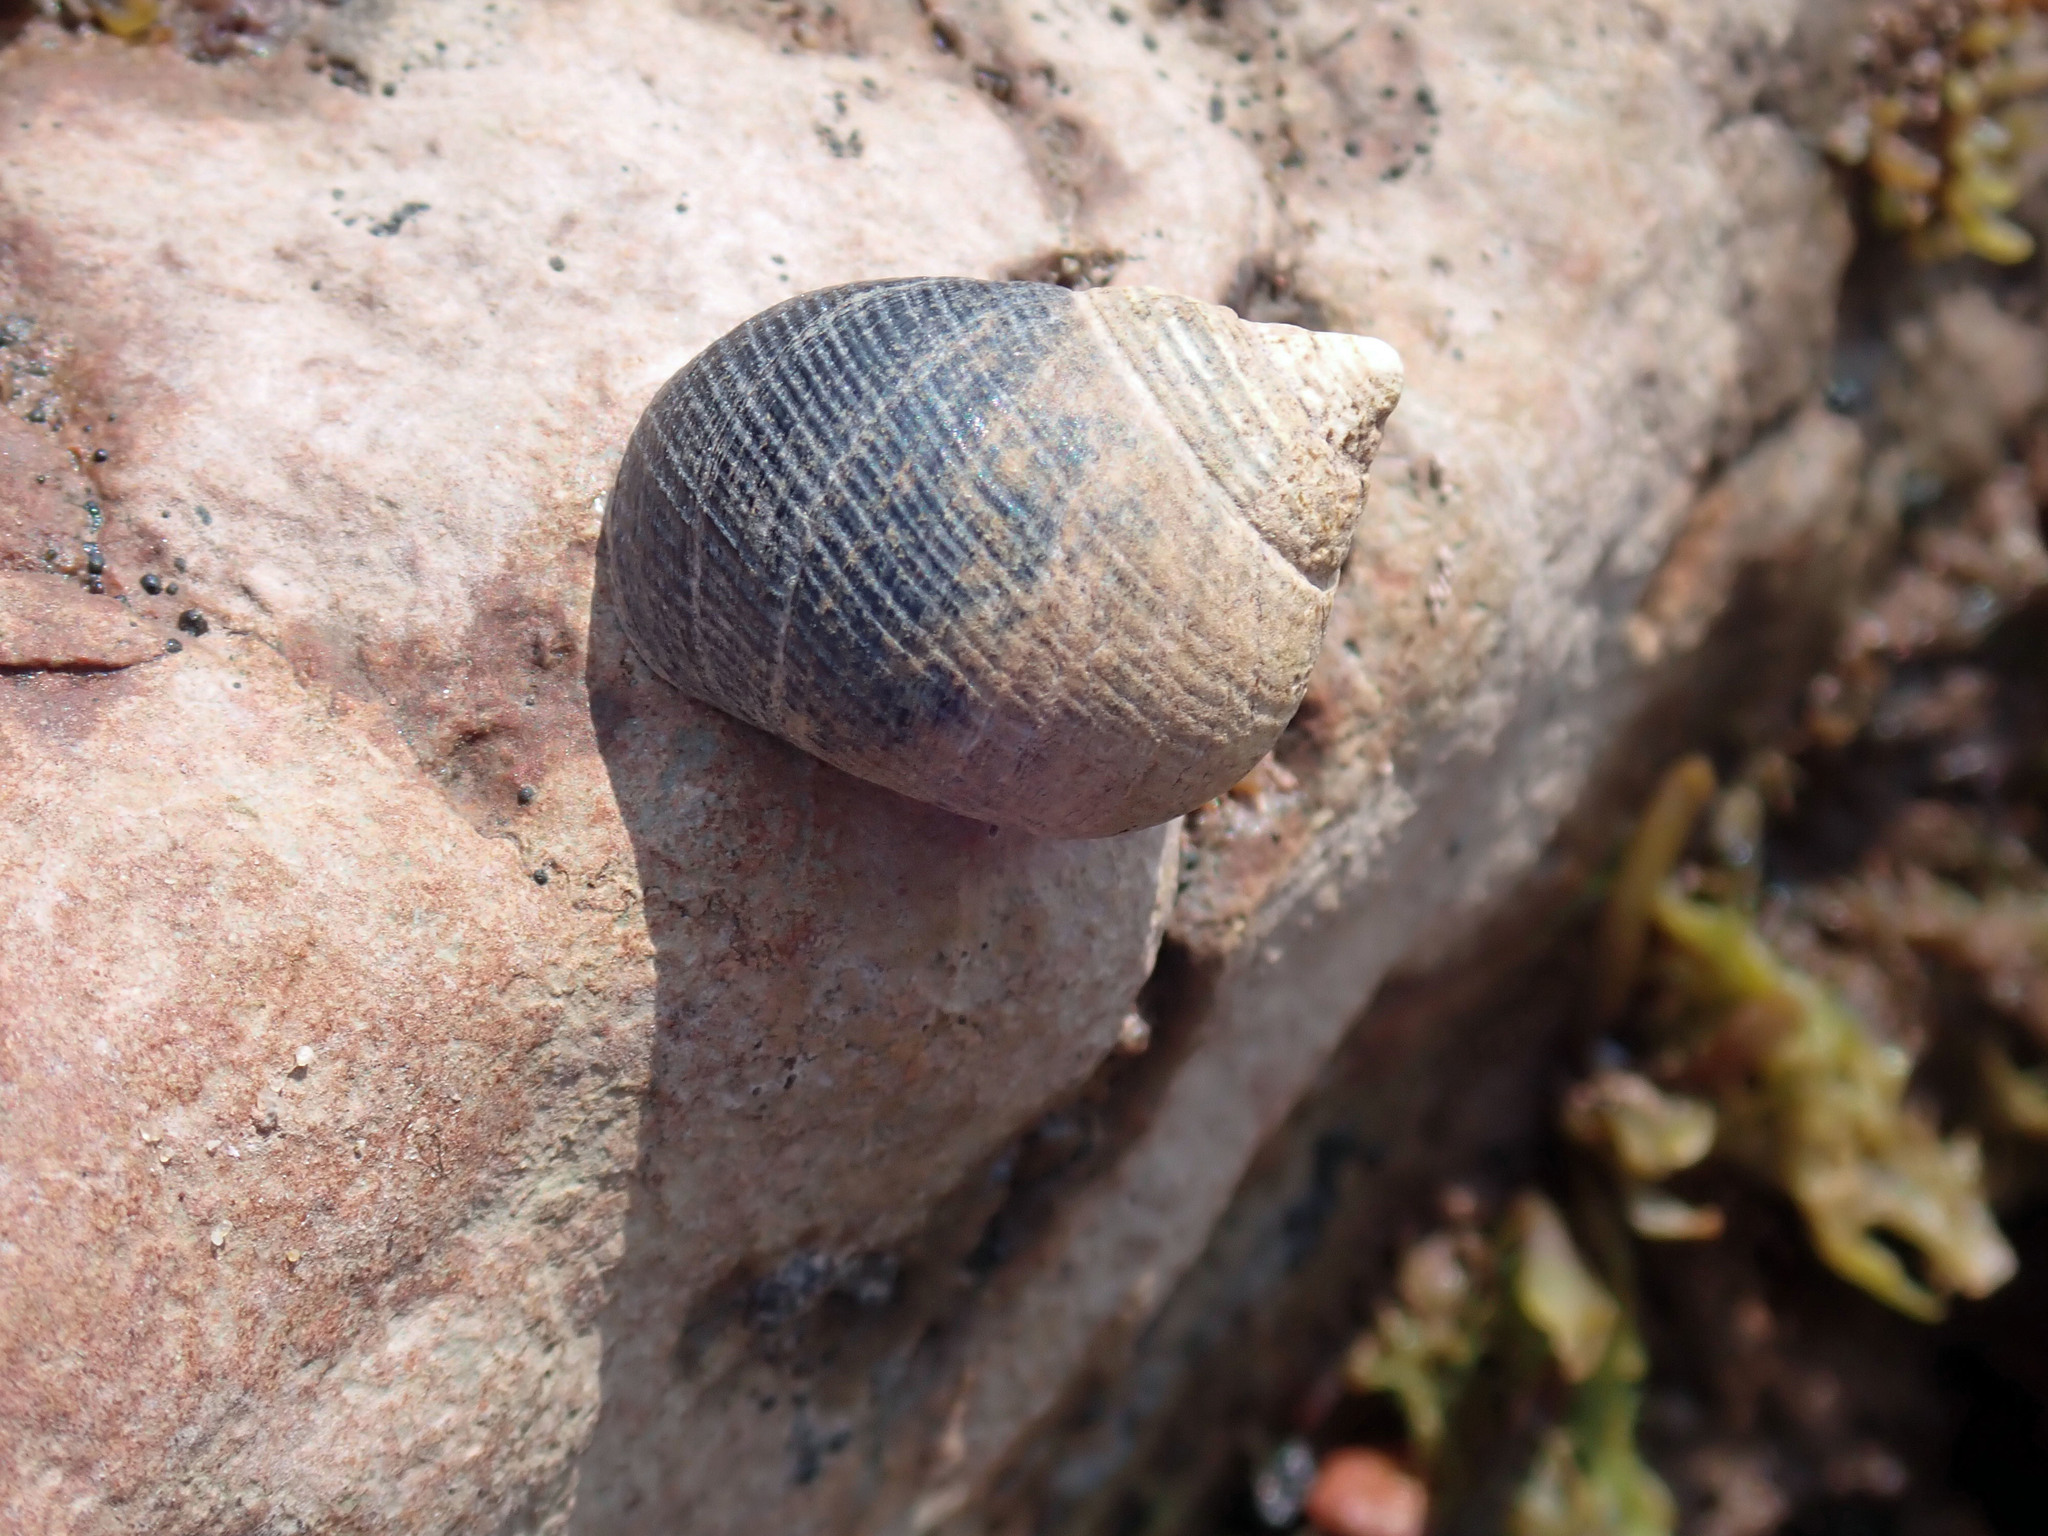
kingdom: Animalia
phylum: Mollusca
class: Gastropoda
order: Littorinimorpha
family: Littorinidae
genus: Littorina
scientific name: Littorina littorea
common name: Common periwinkle
